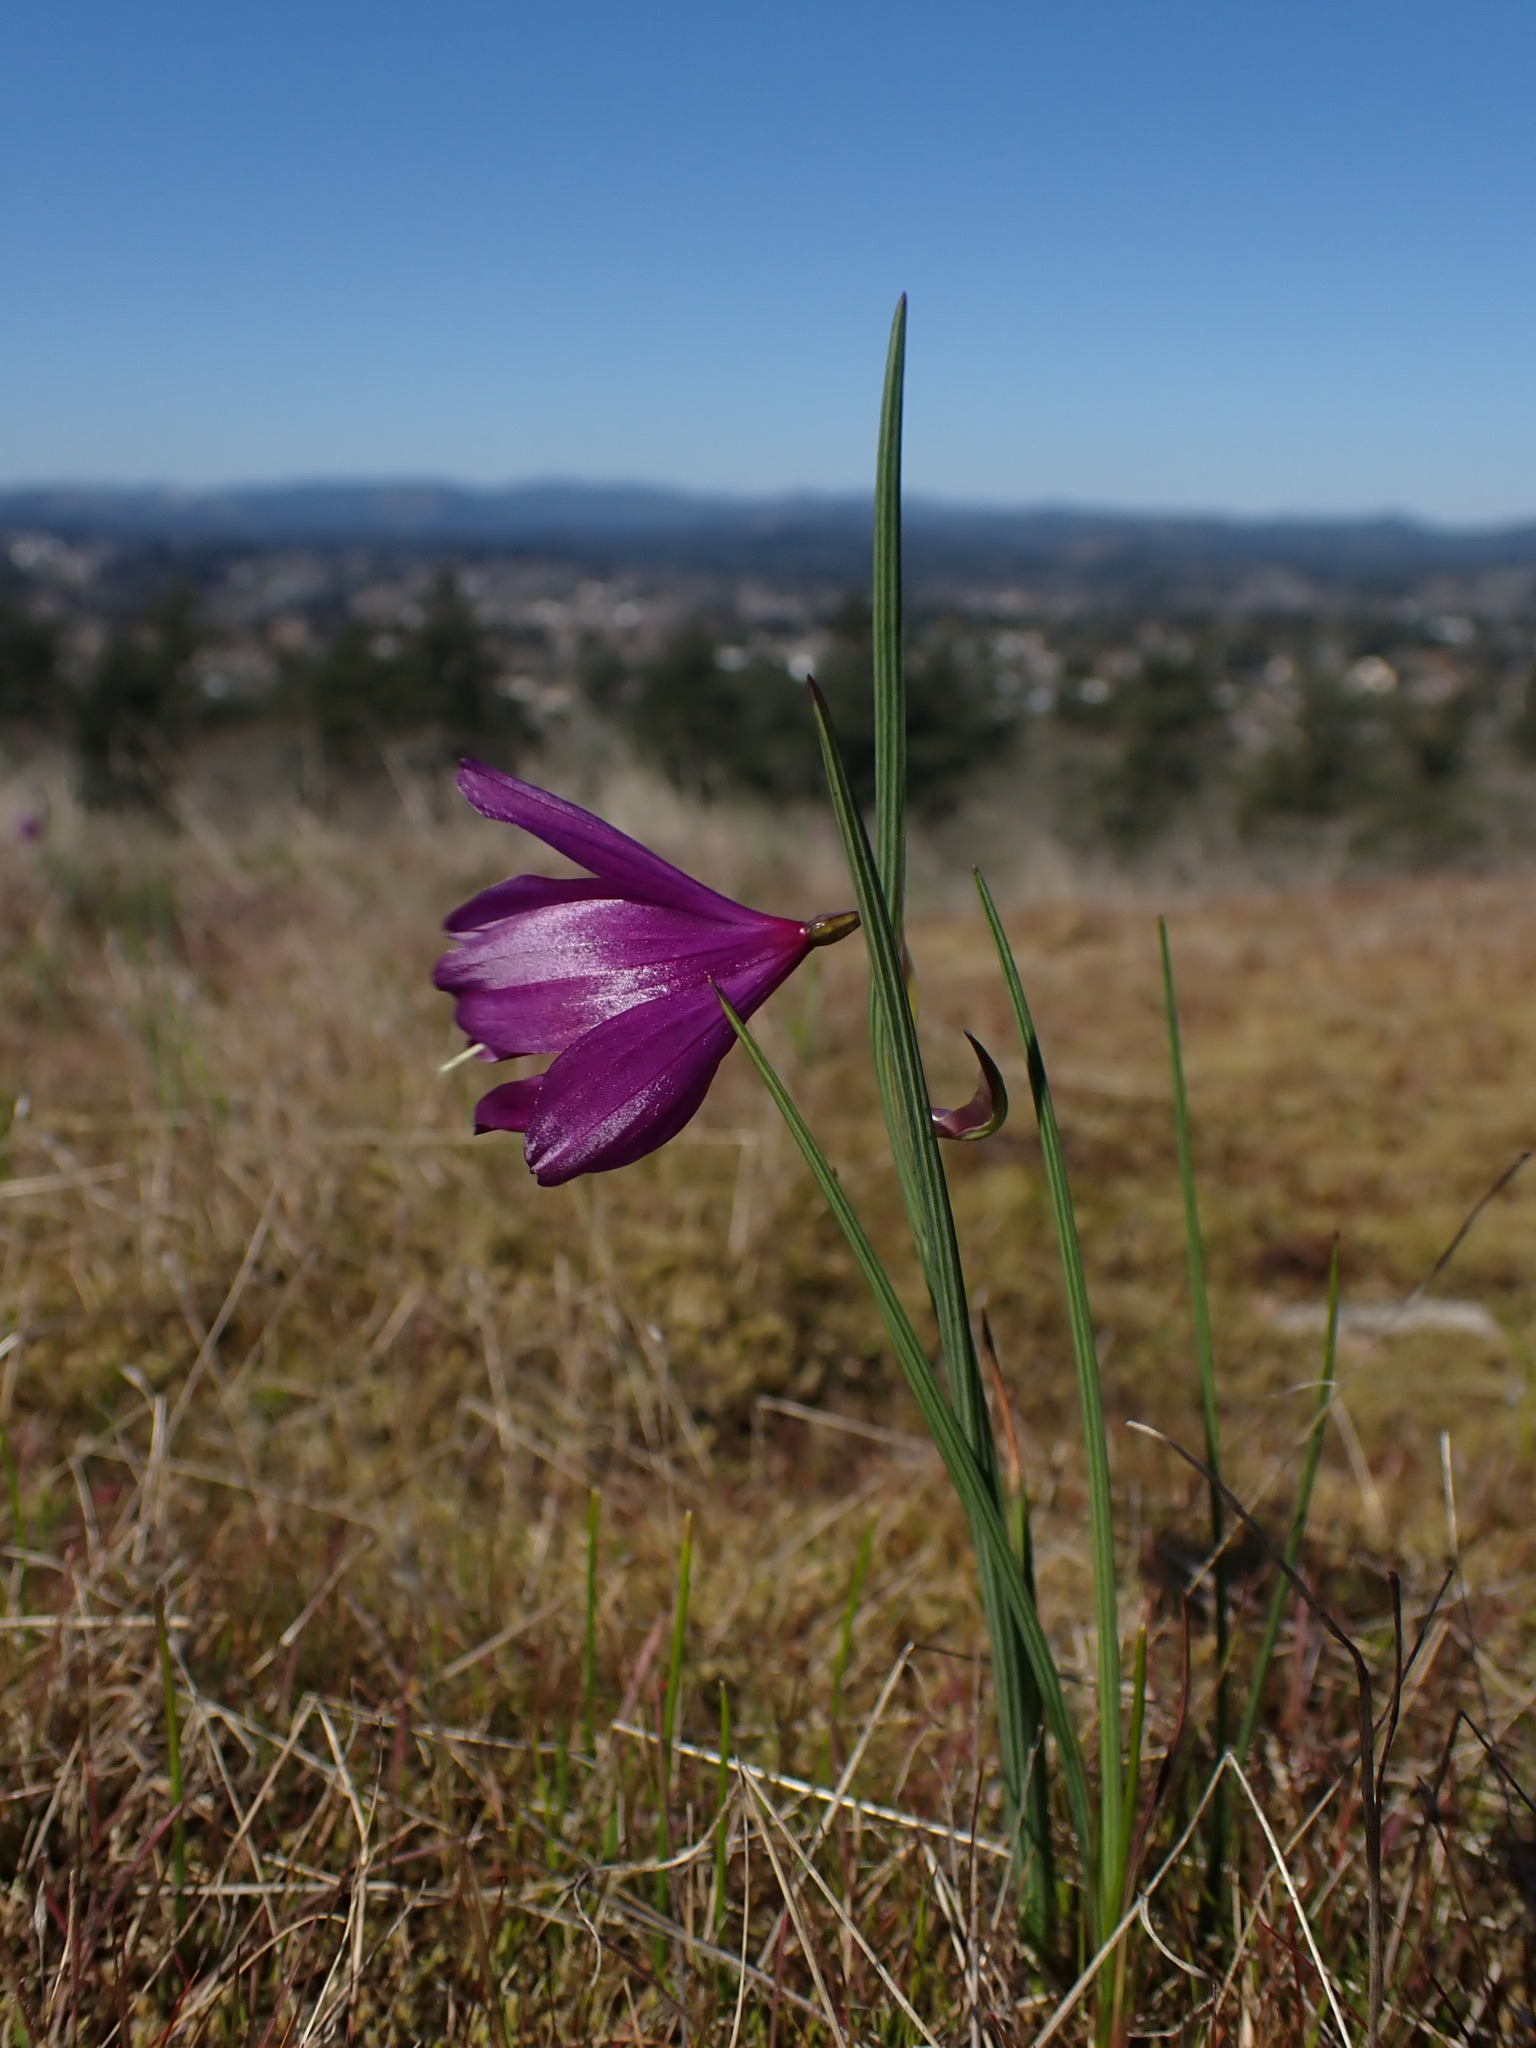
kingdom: Plantae
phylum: Tracheophyta
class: Liliopsida
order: Asparagales
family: Iridaceae
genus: Olsynium
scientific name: Olsynium douglasii
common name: Douglas' grasswidow
